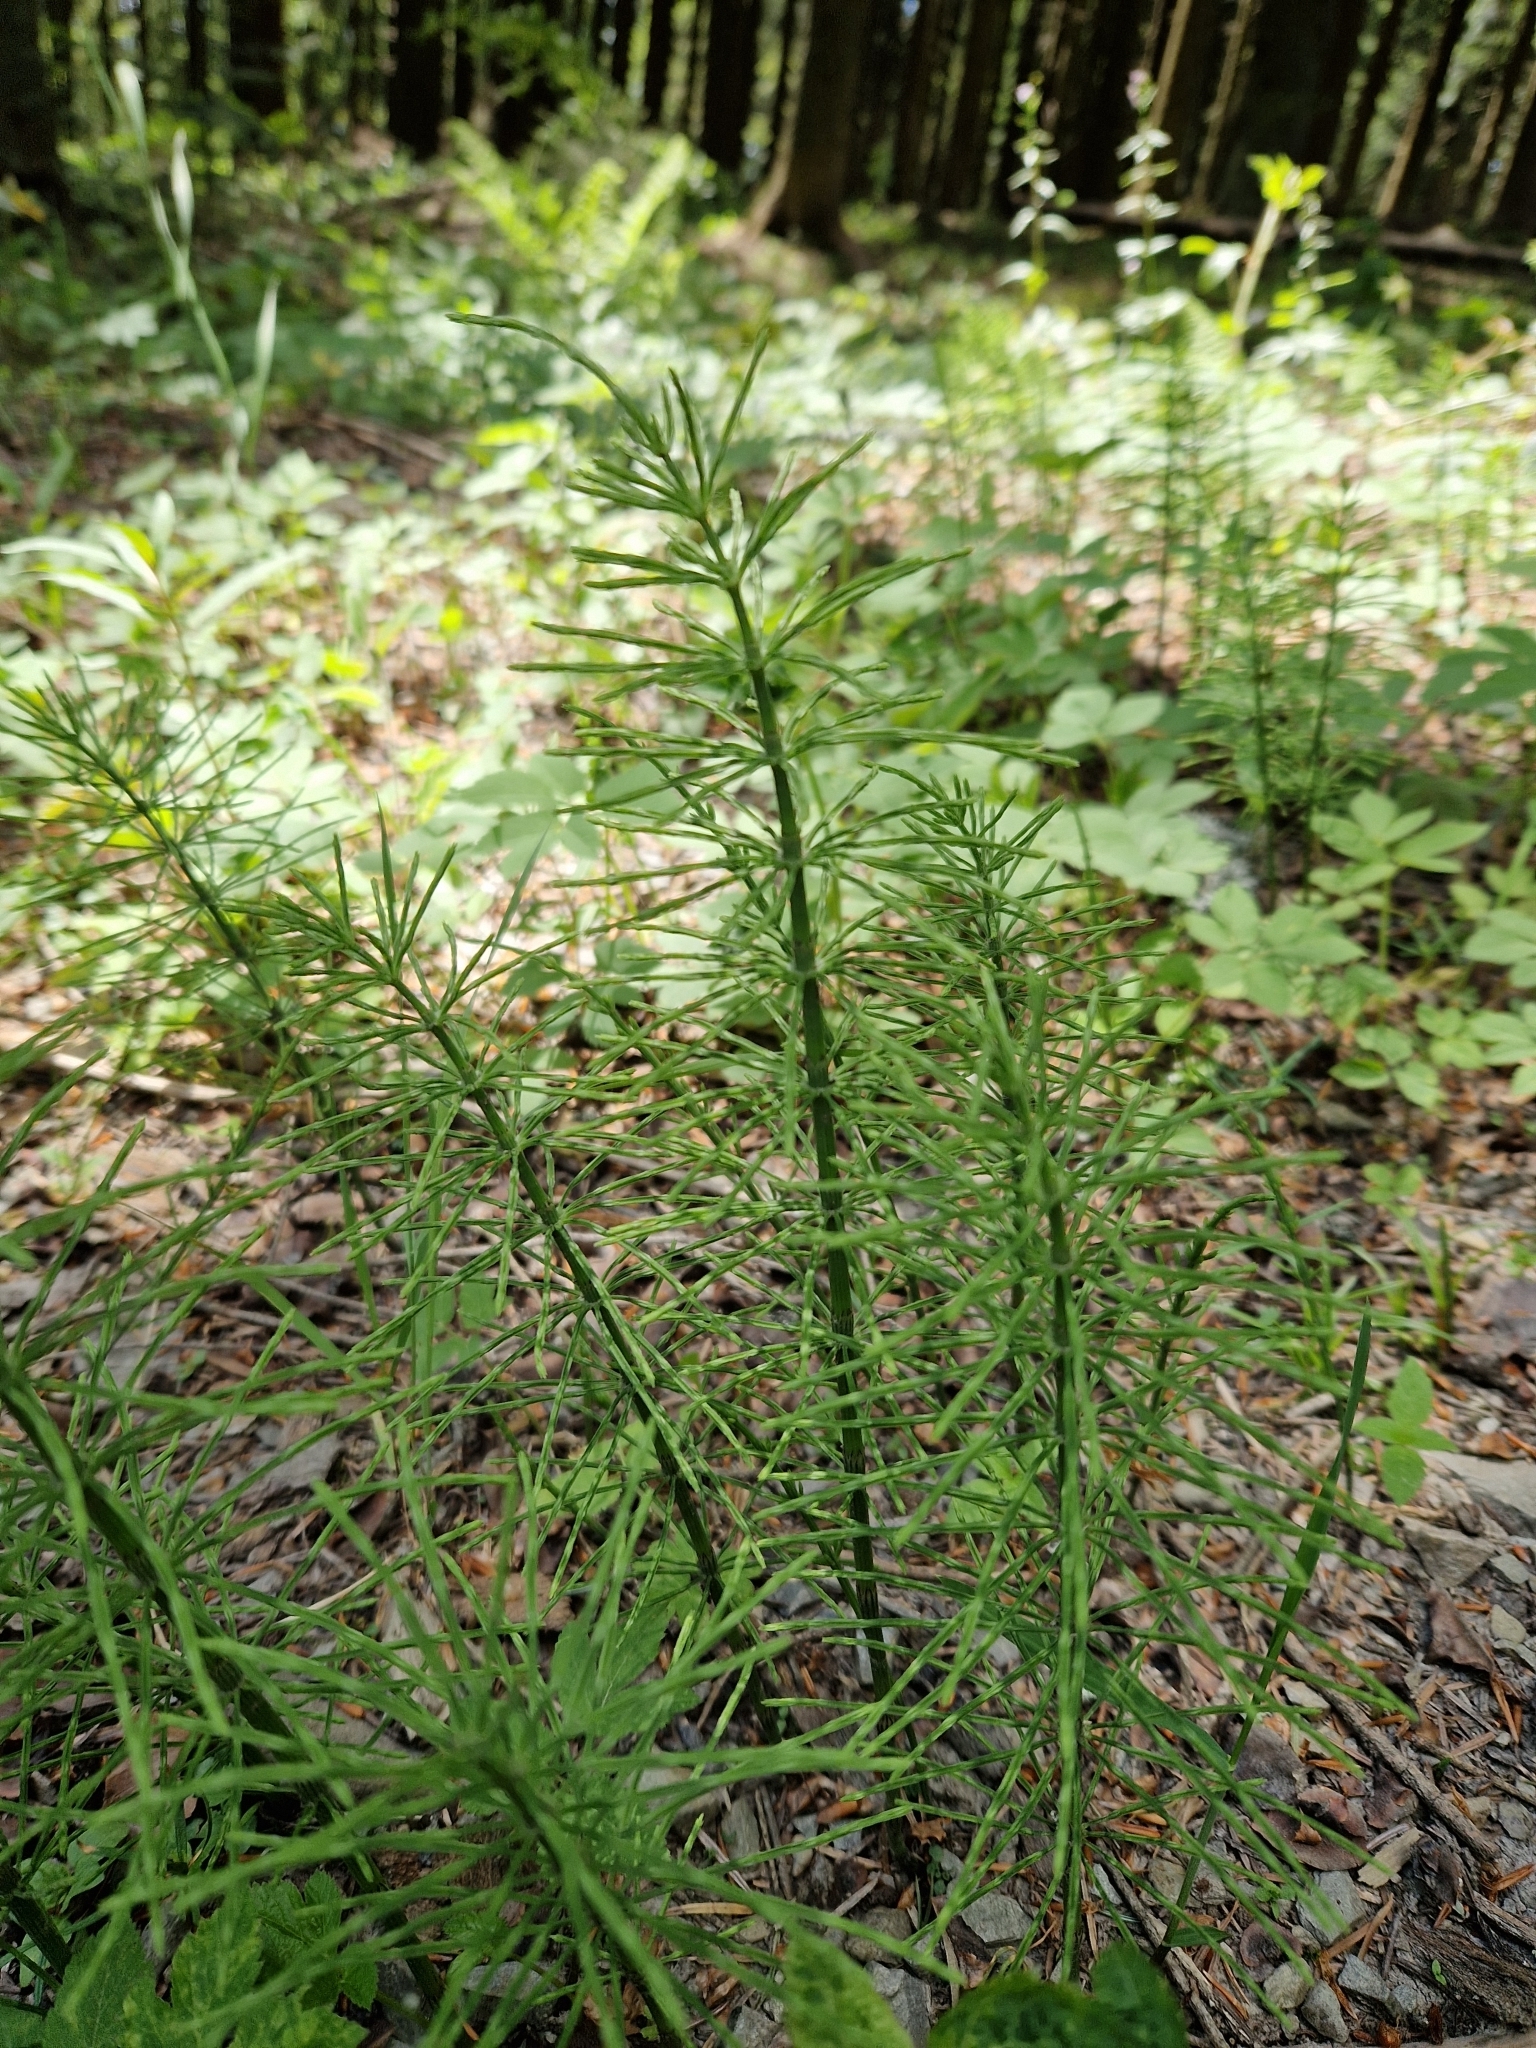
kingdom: Plantae
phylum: Tracheophyta
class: Polypodiopsida
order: Equisetales
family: Equisetaceae
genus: Equisetum
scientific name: Equisetum arvense
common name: Field horsetail
